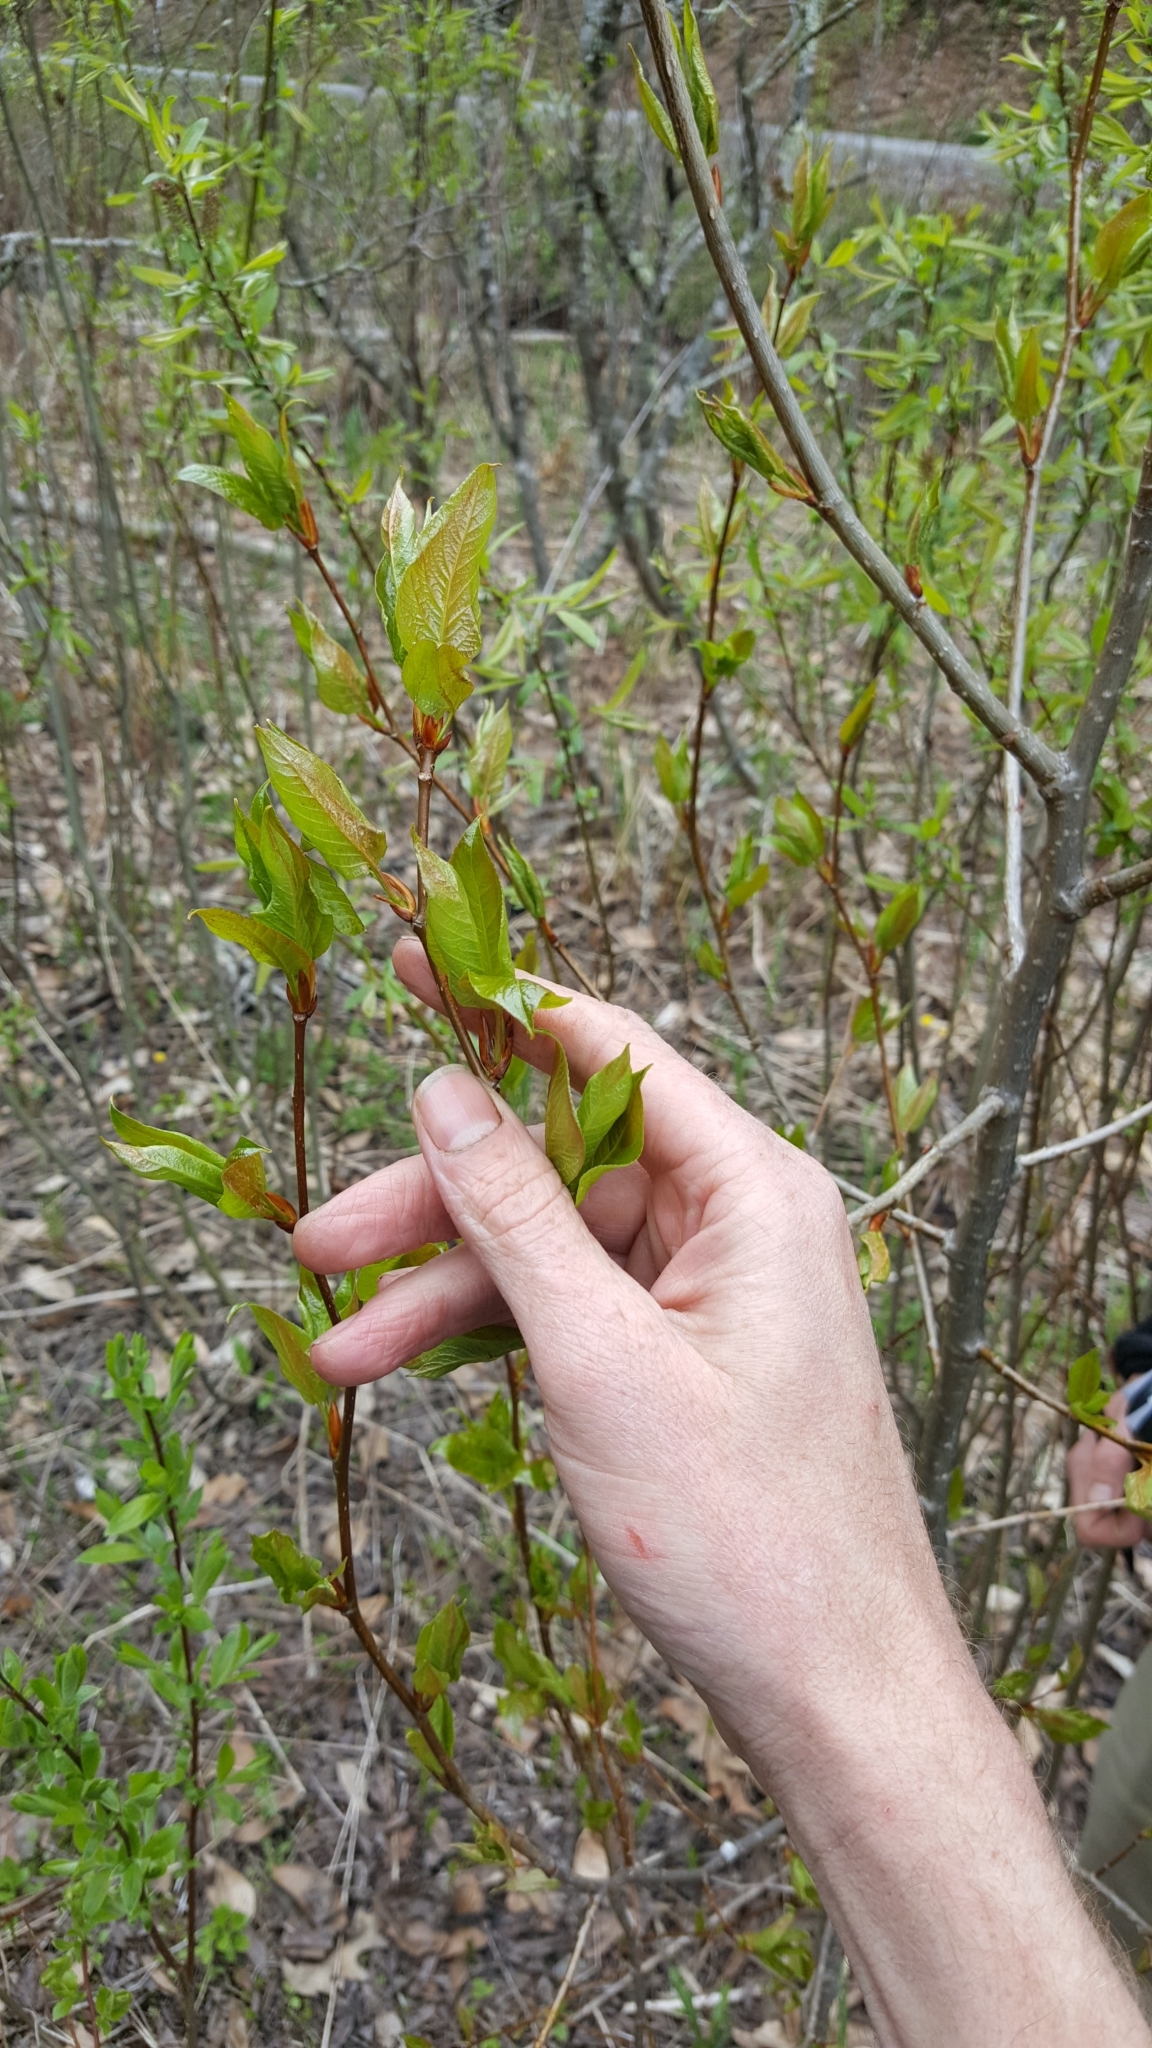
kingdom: Plantae
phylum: Tracheophyta
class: Magnoliopsida
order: Malpighiales
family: Salicaceae
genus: Populus
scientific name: Populus balsamifera
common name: Balsam poplar
